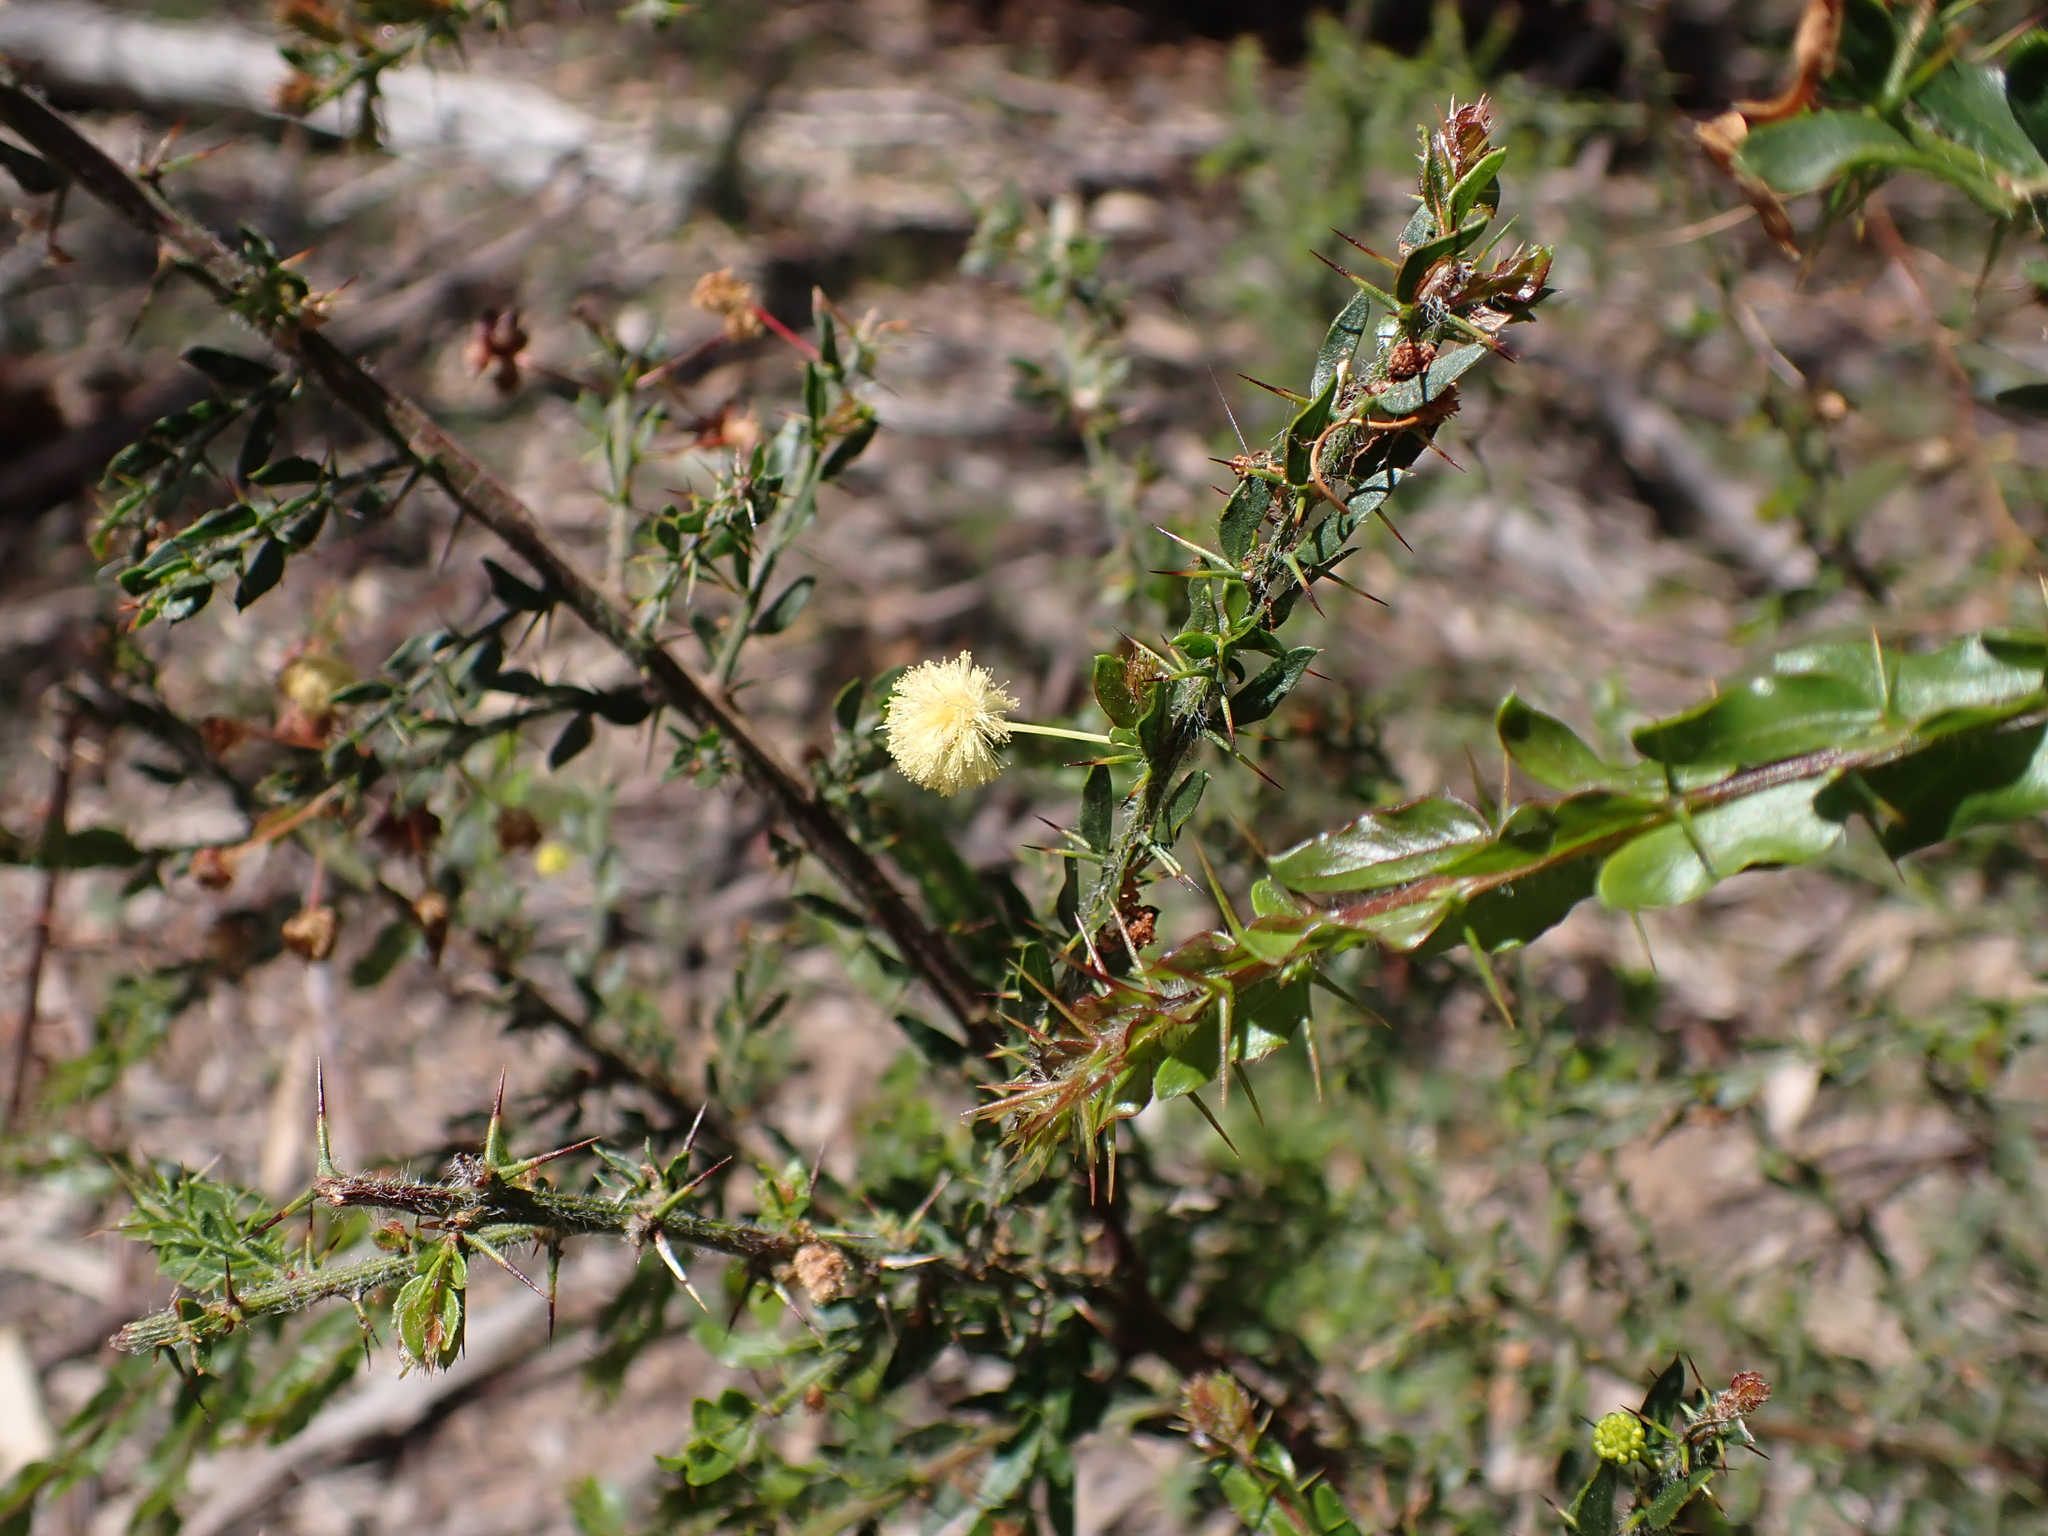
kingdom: Plantae
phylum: Tracheophyta
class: Magnoliopsida
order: Fabales
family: Fabaceae
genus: Acacia
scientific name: Acacia paradoxa
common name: Paradox acacia
